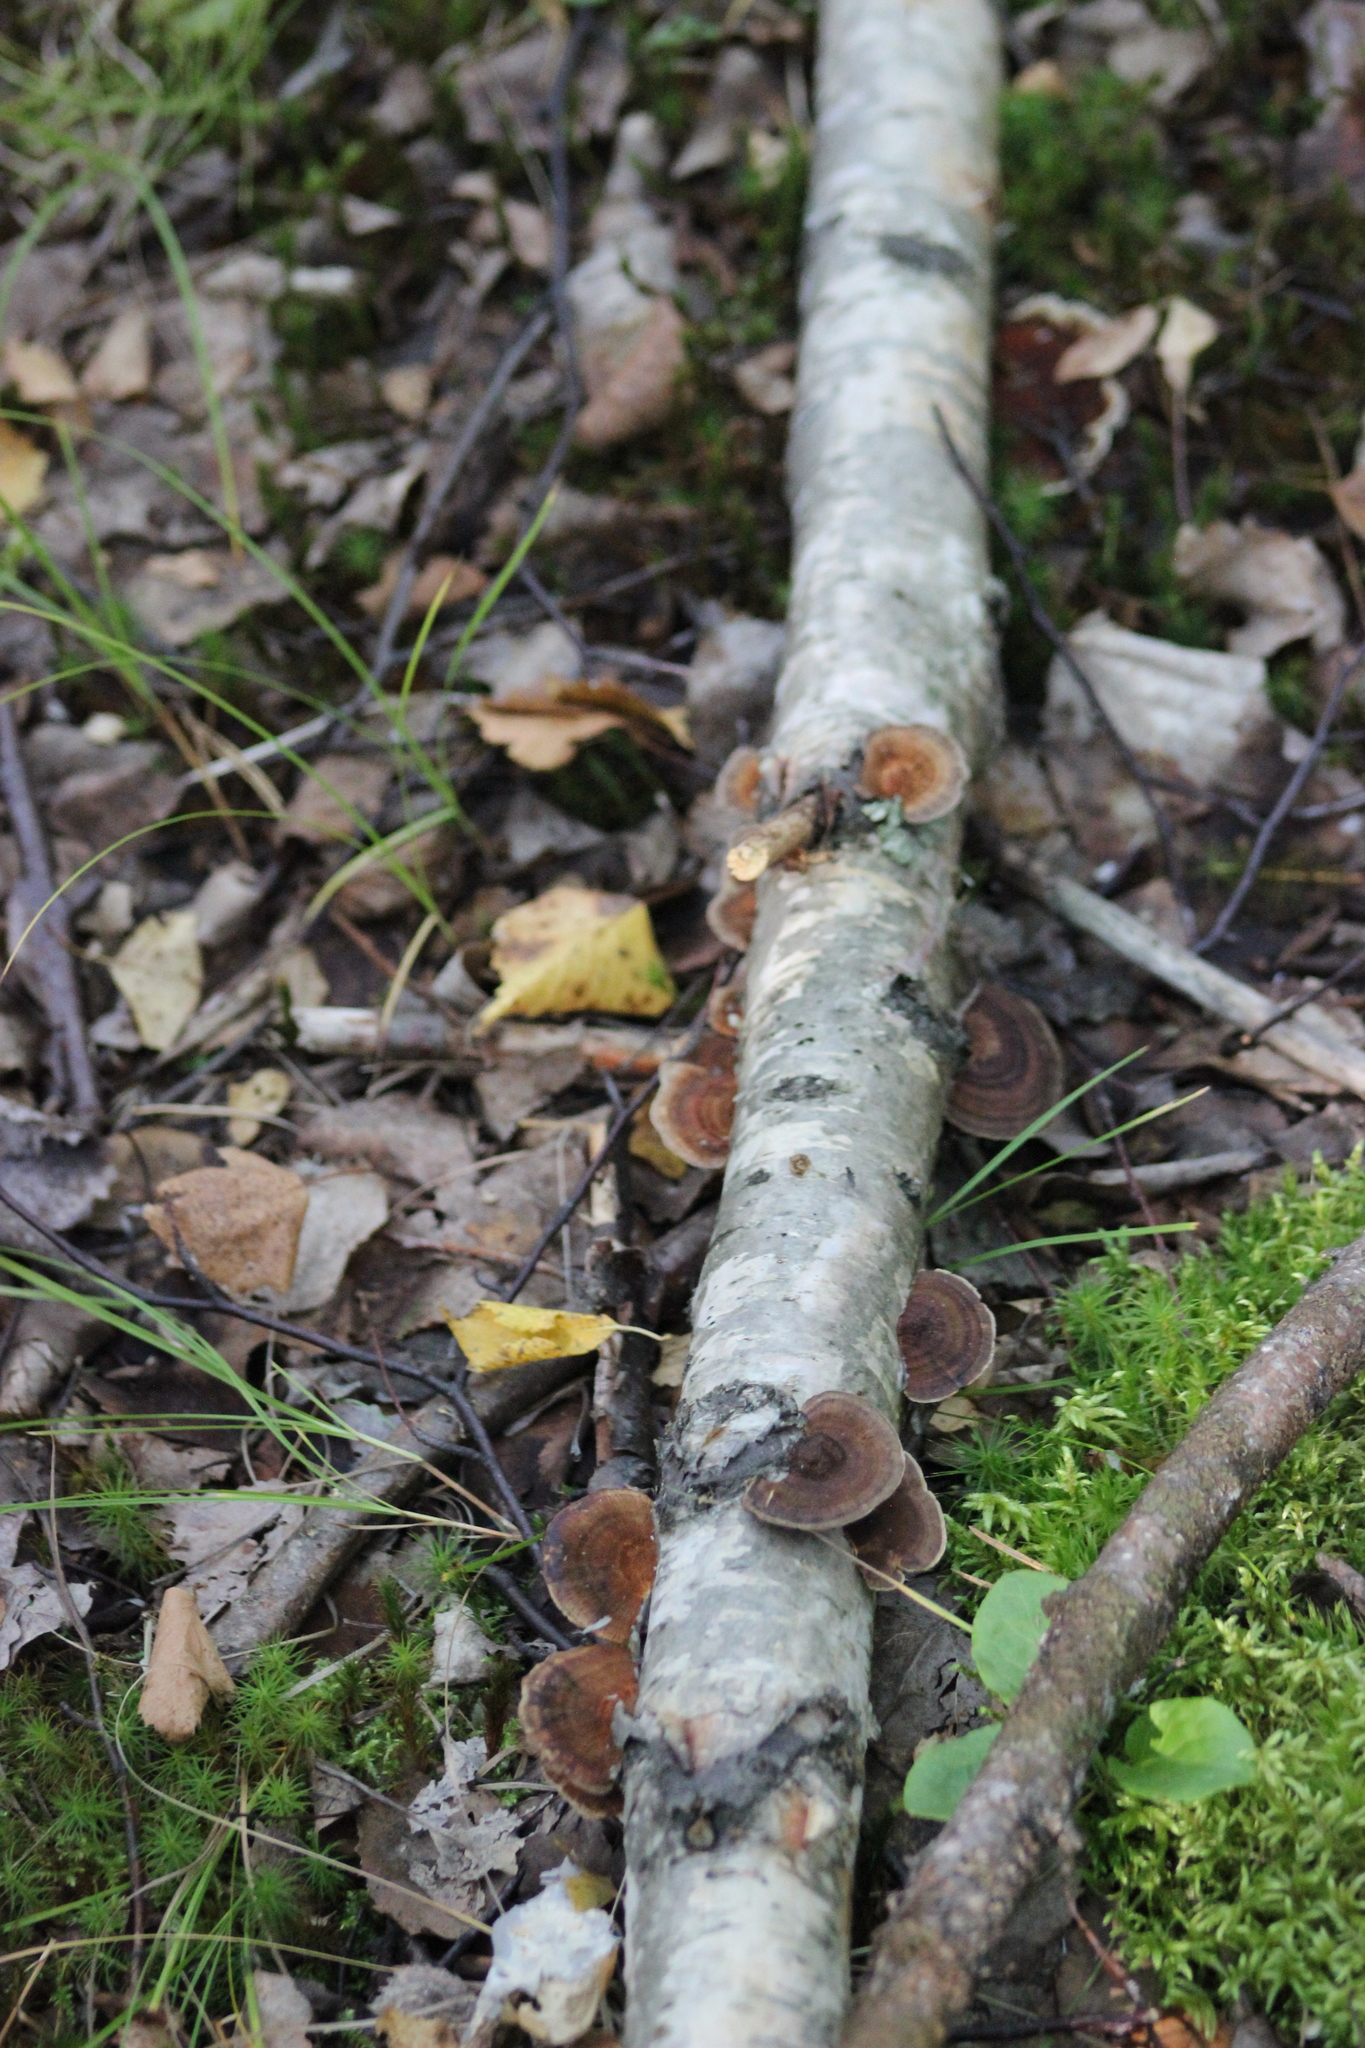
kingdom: Fungi
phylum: Basidiomycota
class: Agaricomycetes
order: Polyporales
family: Polyporaceae
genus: Daedaleopsis
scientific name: Daedaleopsis septentrionalis
